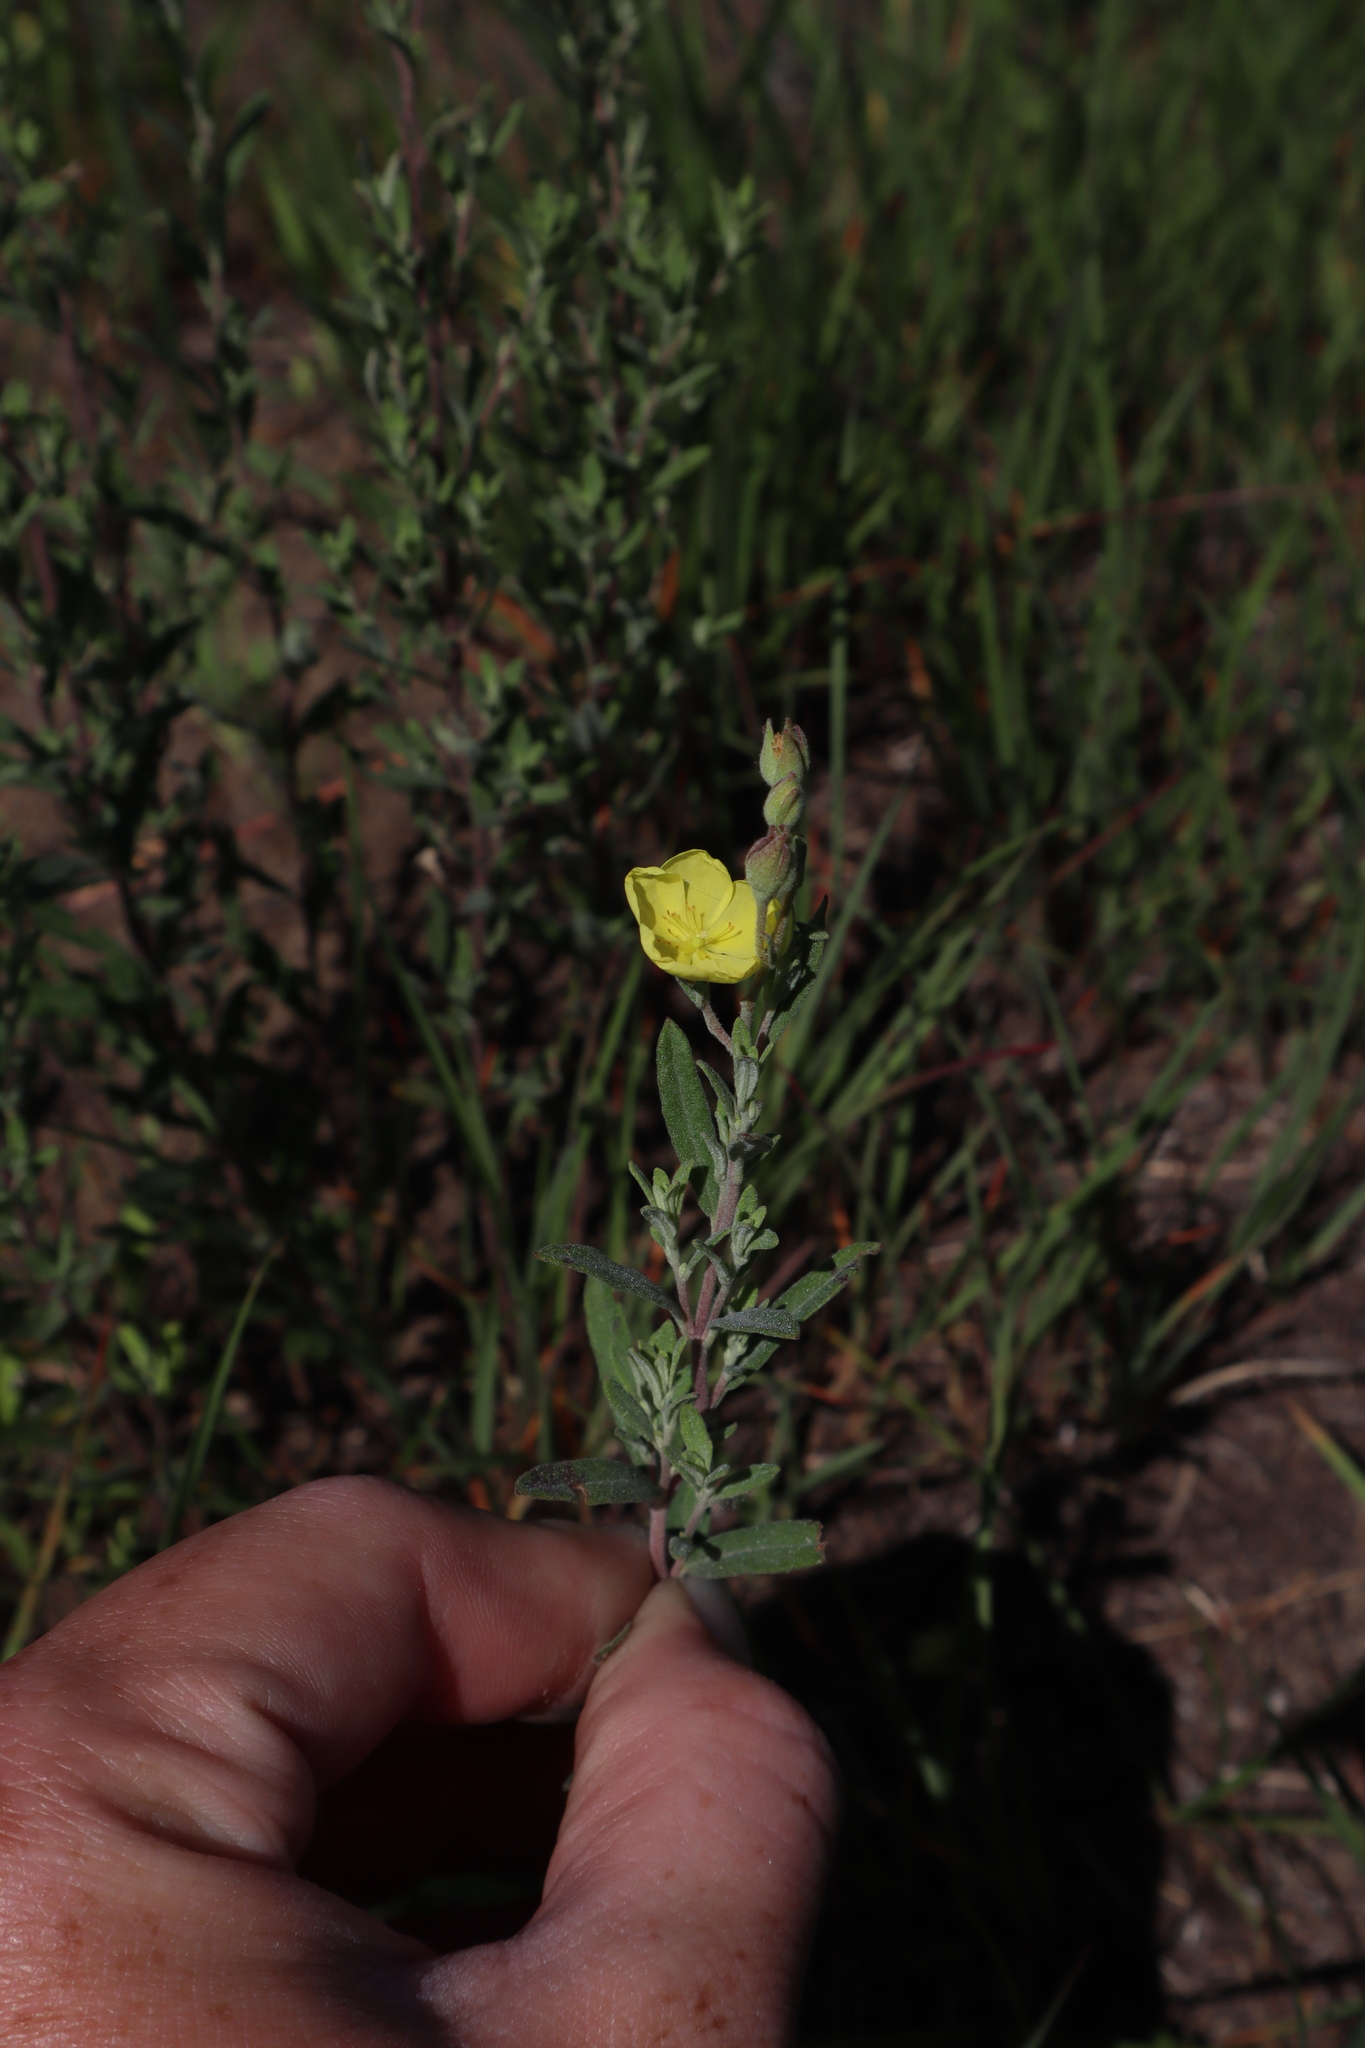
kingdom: Plantae
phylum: Tracheophyta
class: Magnoliopsida
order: Malvales
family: Cistaceae
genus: Crocanthemum
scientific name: Crocanthemum bicknellii
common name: Hoary frostweed
